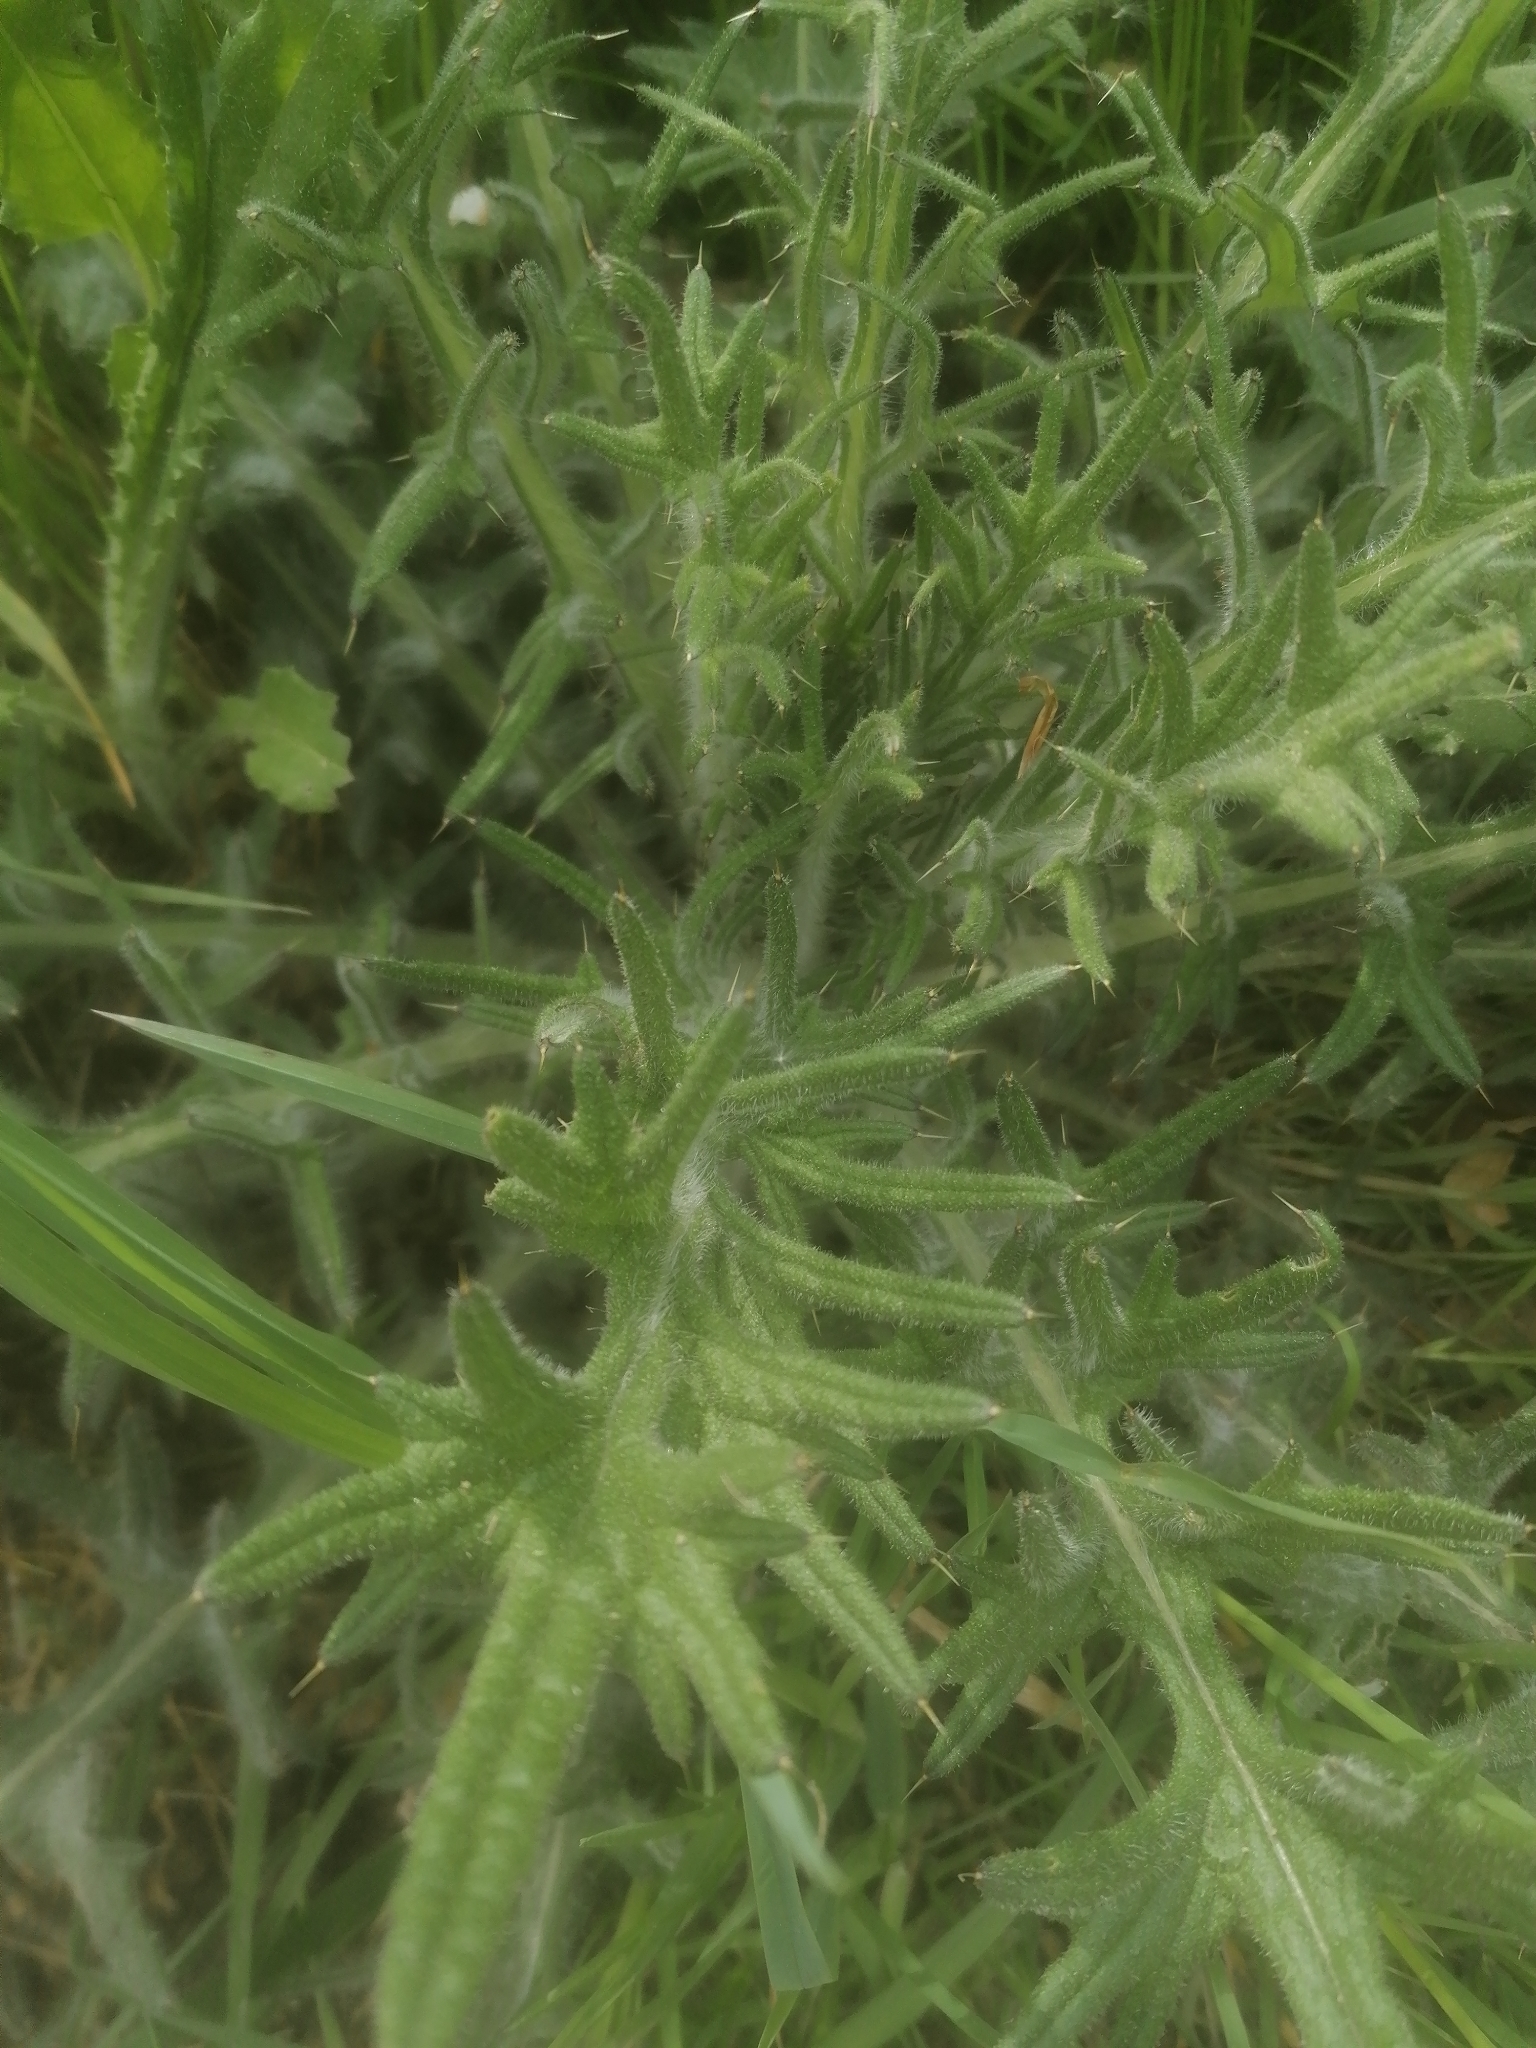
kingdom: Plantae
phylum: Tracheophyta
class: Magnoliopsida
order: Asterales
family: Asteraceae
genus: Cirsium
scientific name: Cirsium vulgare
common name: Bull thistle
